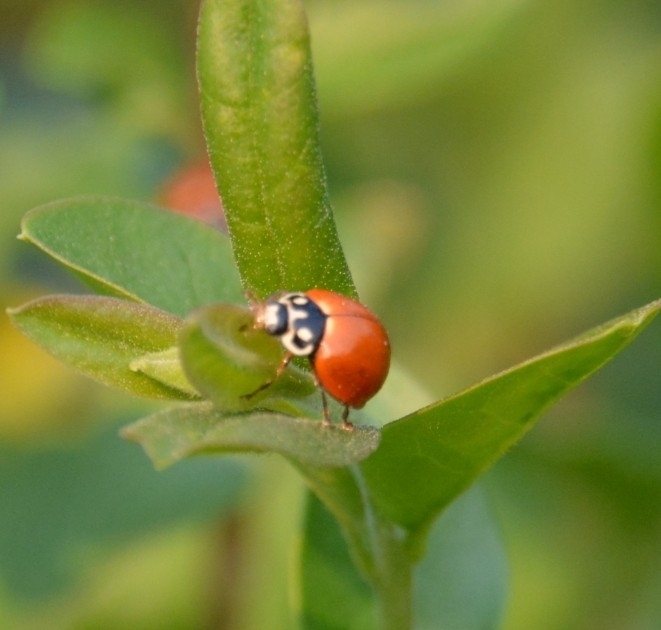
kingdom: Animalia
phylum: Arthropoda
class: Insecta
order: Coleoptera
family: Coccinellidae
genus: Cycloneda
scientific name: Cycloneda sanguinea
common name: Ladybird beetle
